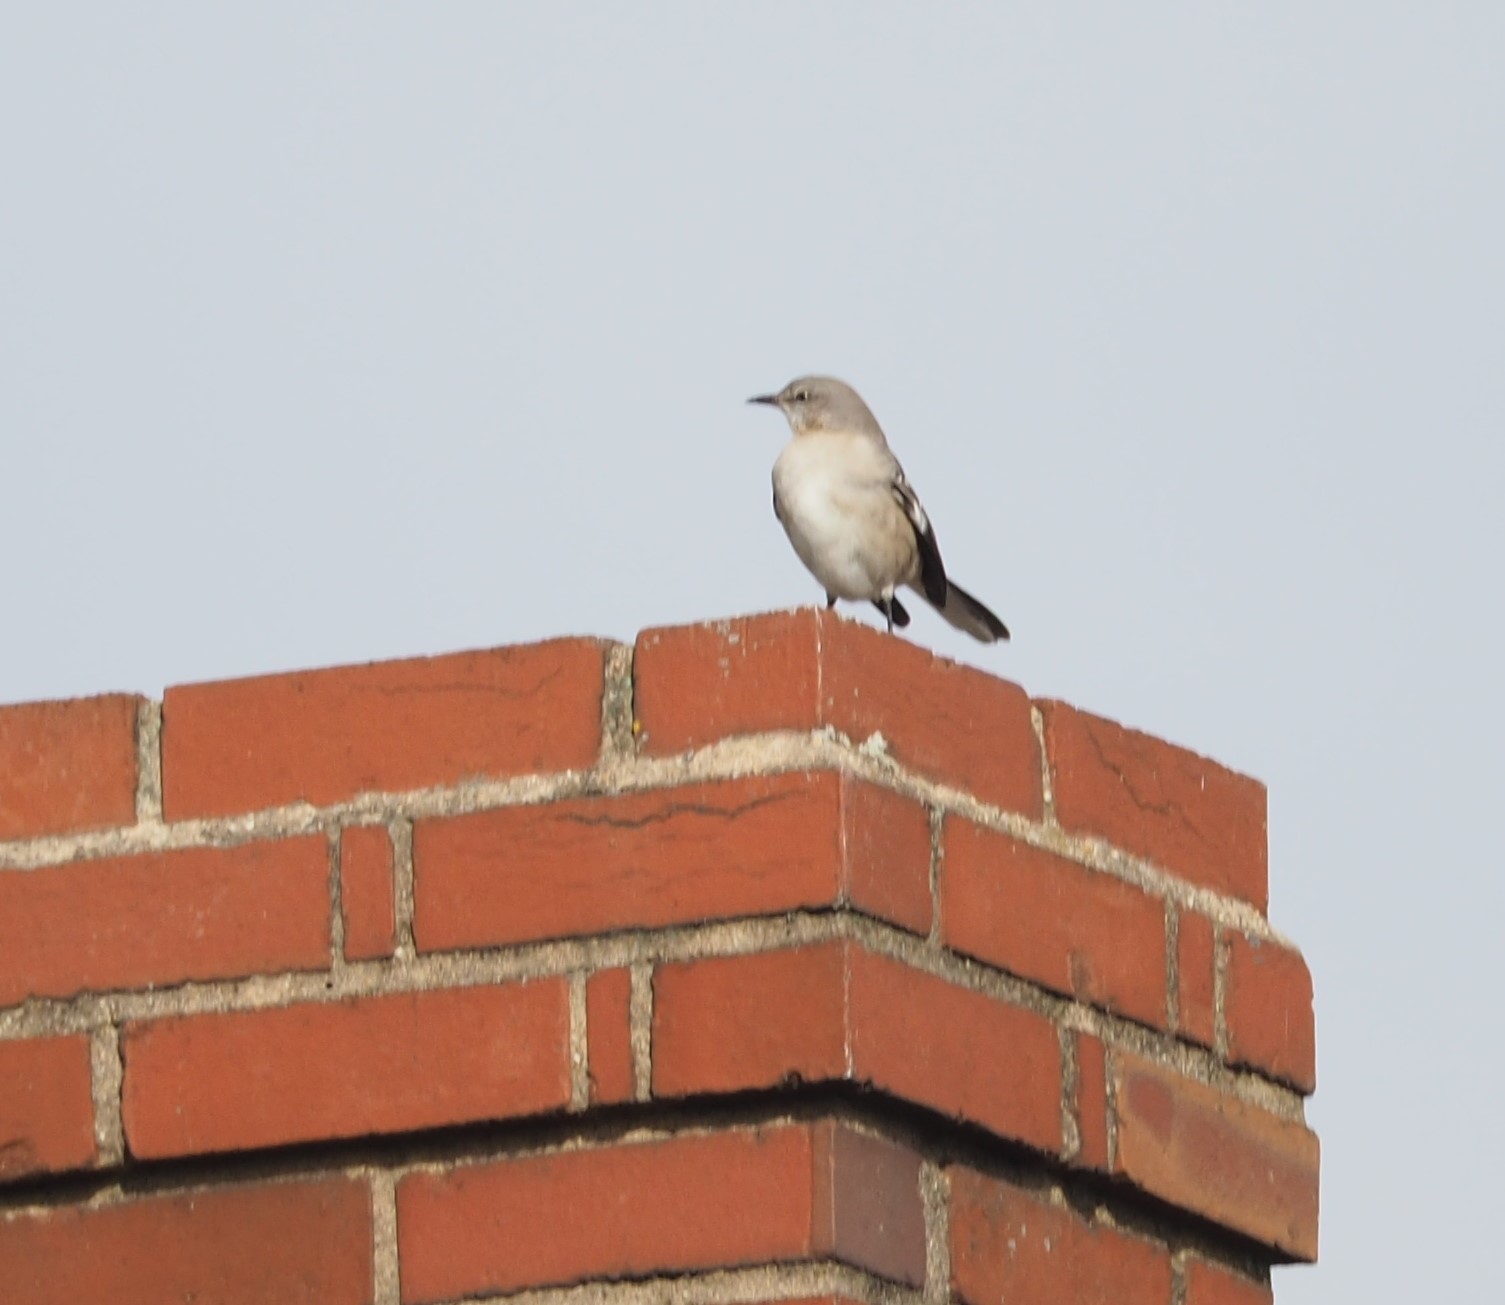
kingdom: Animalia
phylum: Chordata
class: Aves
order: Passeriformes
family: Mimidae
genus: Mimus
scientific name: Mimus polyglottos
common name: Northern mockingbird
